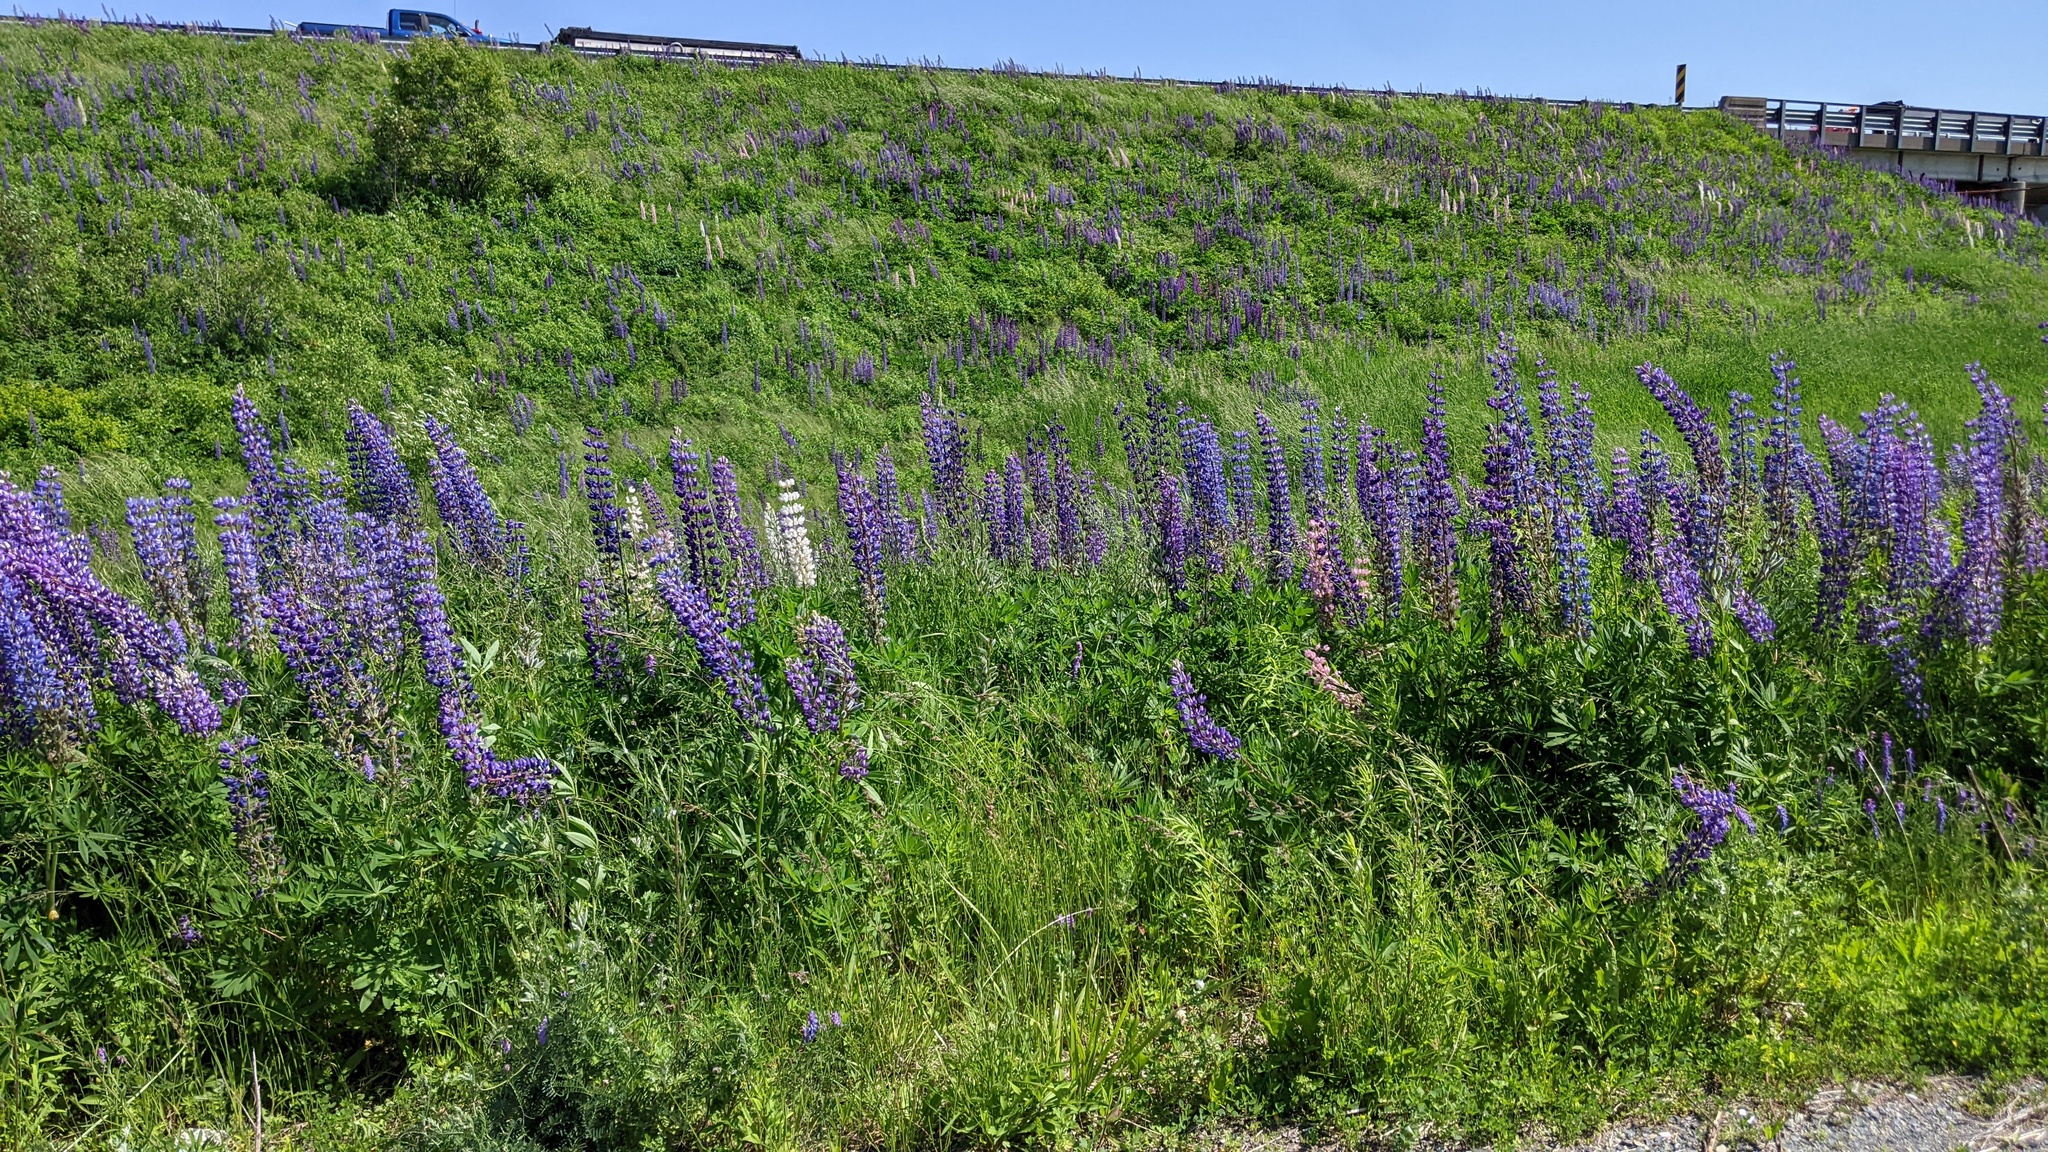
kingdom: Plantae
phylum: Tracheophyta
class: Magnoliopsida
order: Fabales
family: Fabaceae
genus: Lupinus
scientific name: Lupinus polyphyllus
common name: Garden lupin
